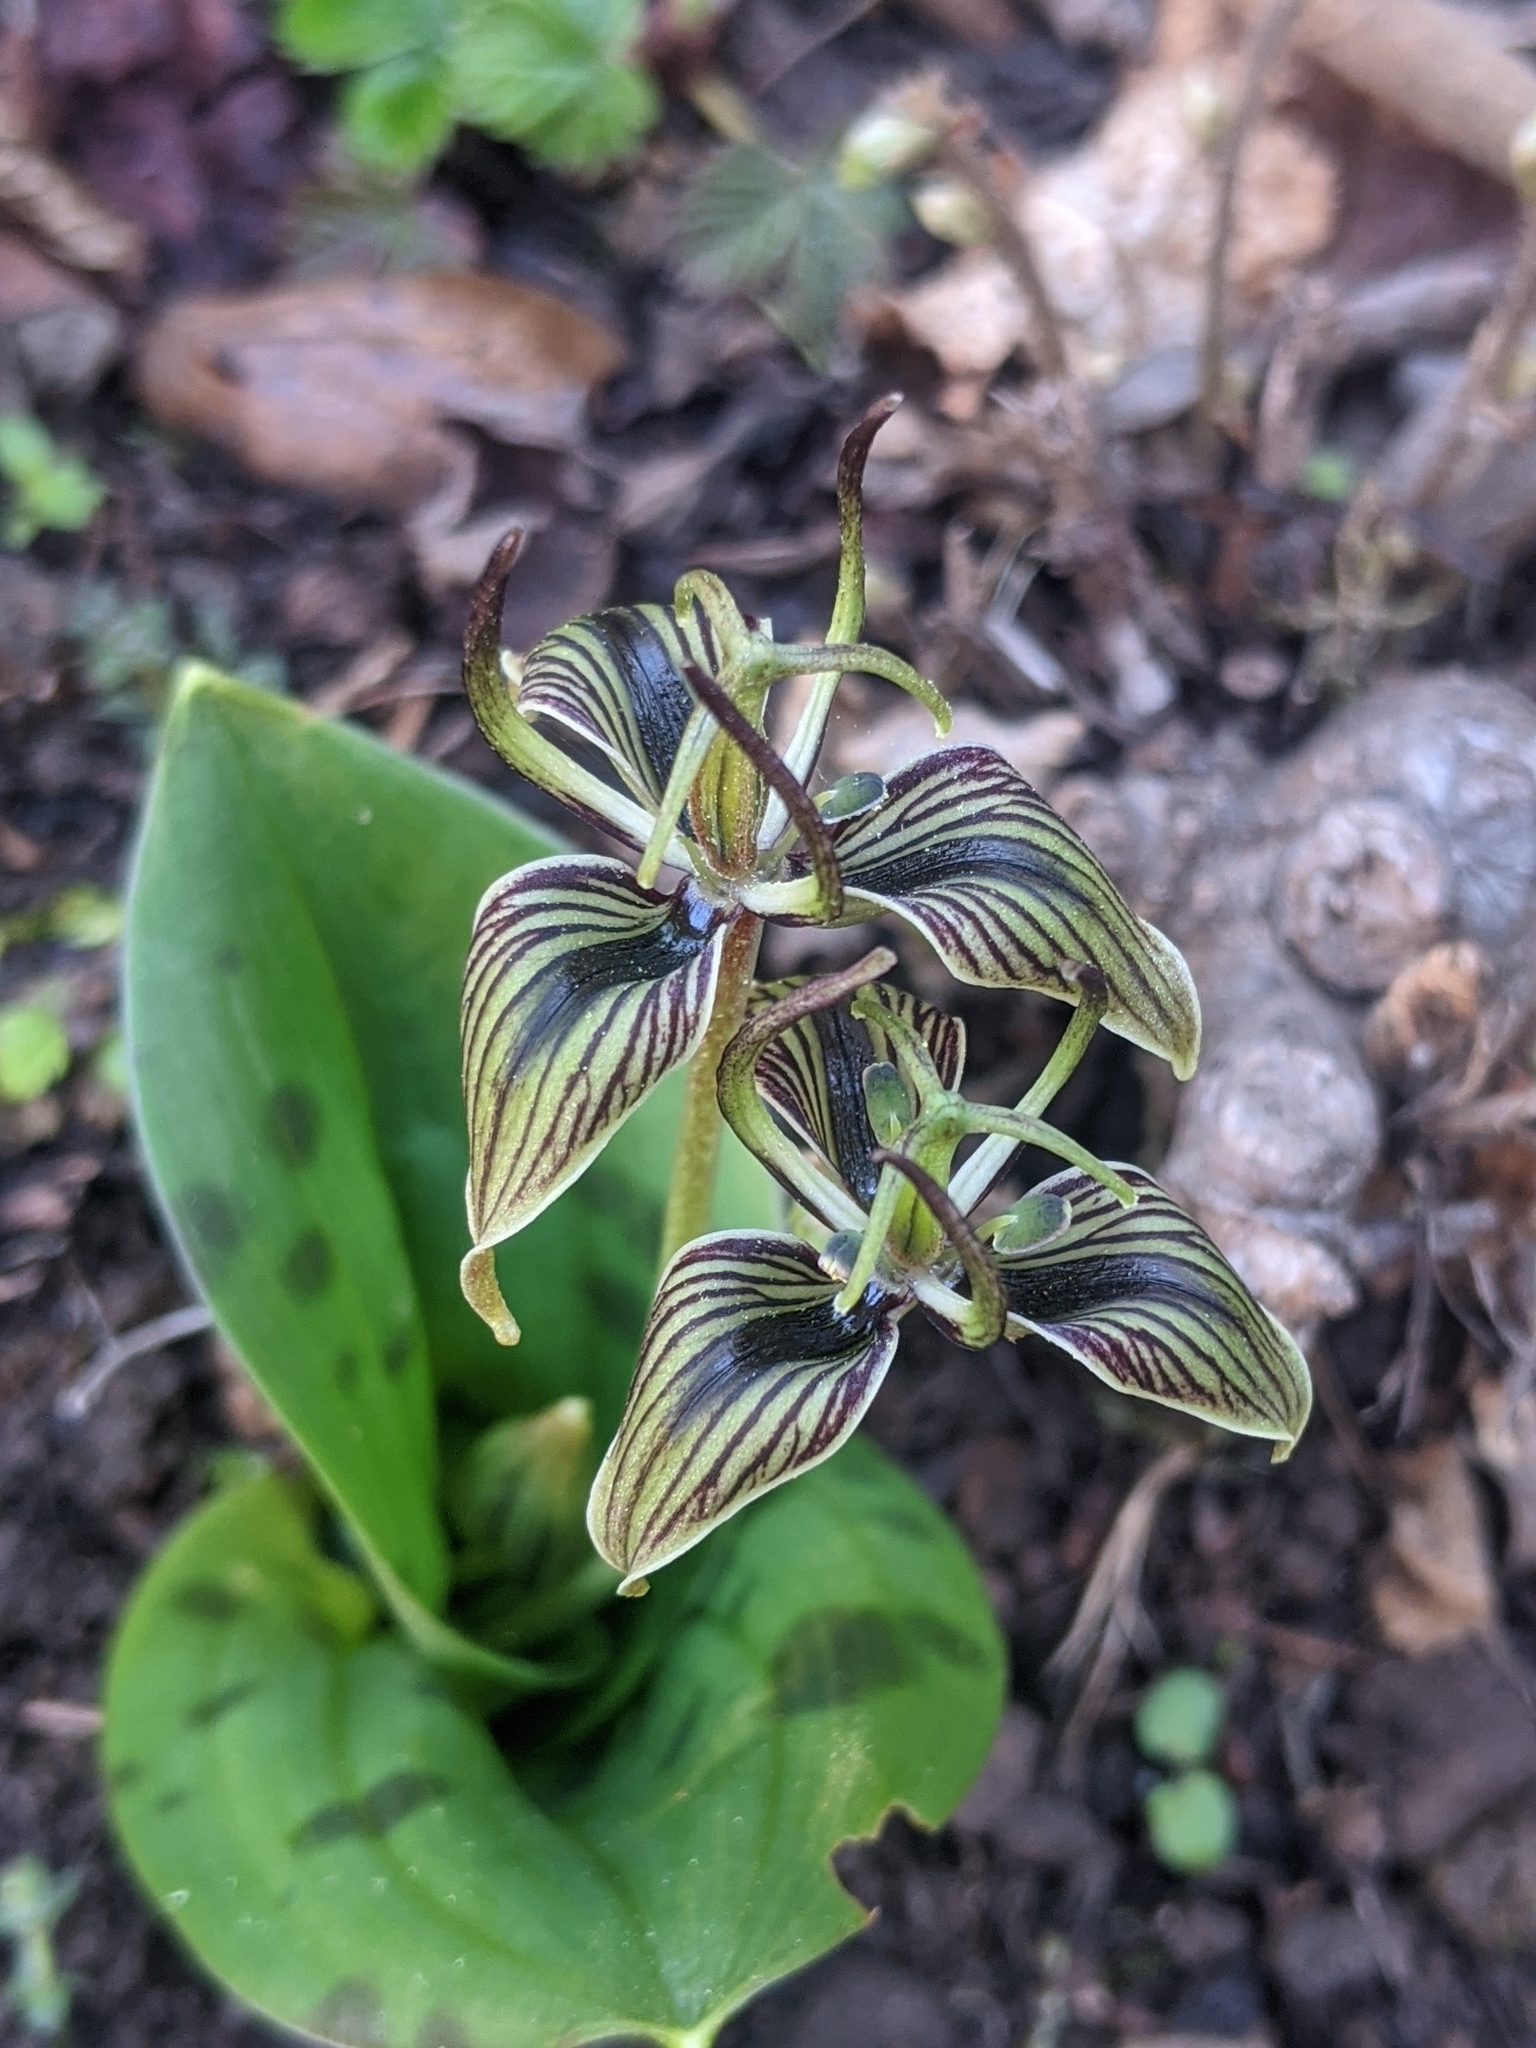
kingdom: Plantae
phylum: Tracheophyta
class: Liliopsida
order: Liliales
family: Liliaceae
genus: Scoliopus
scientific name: Scoliopus bigelovii
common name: Foetid adder's-tongue
